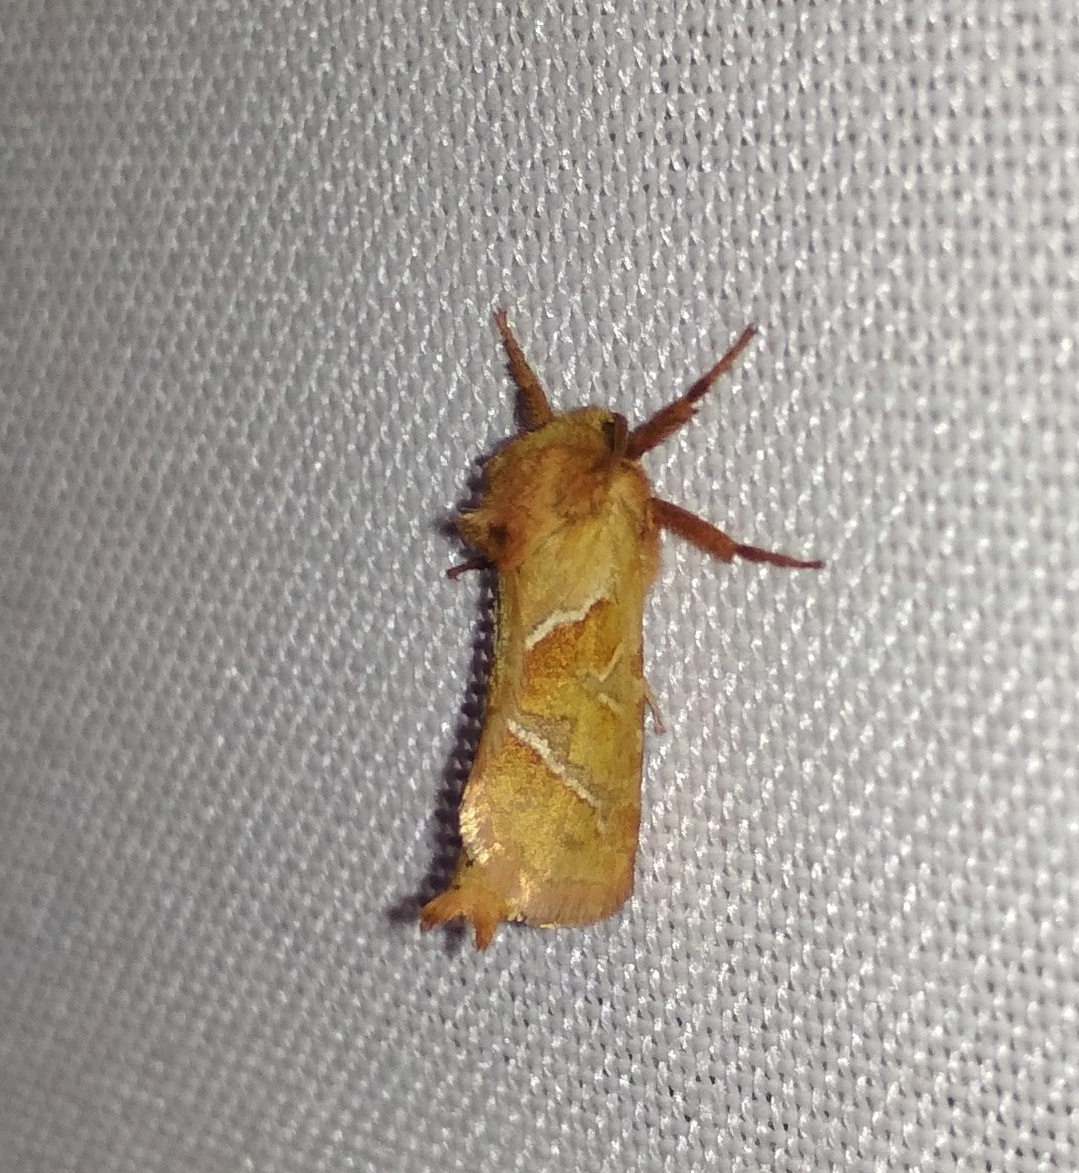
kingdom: Animalia
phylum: Arthropoda
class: Insecta
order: Lepidoptera
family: Hepialidae
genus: Triodia
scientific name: Triodia sylvina
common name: Orange swift
